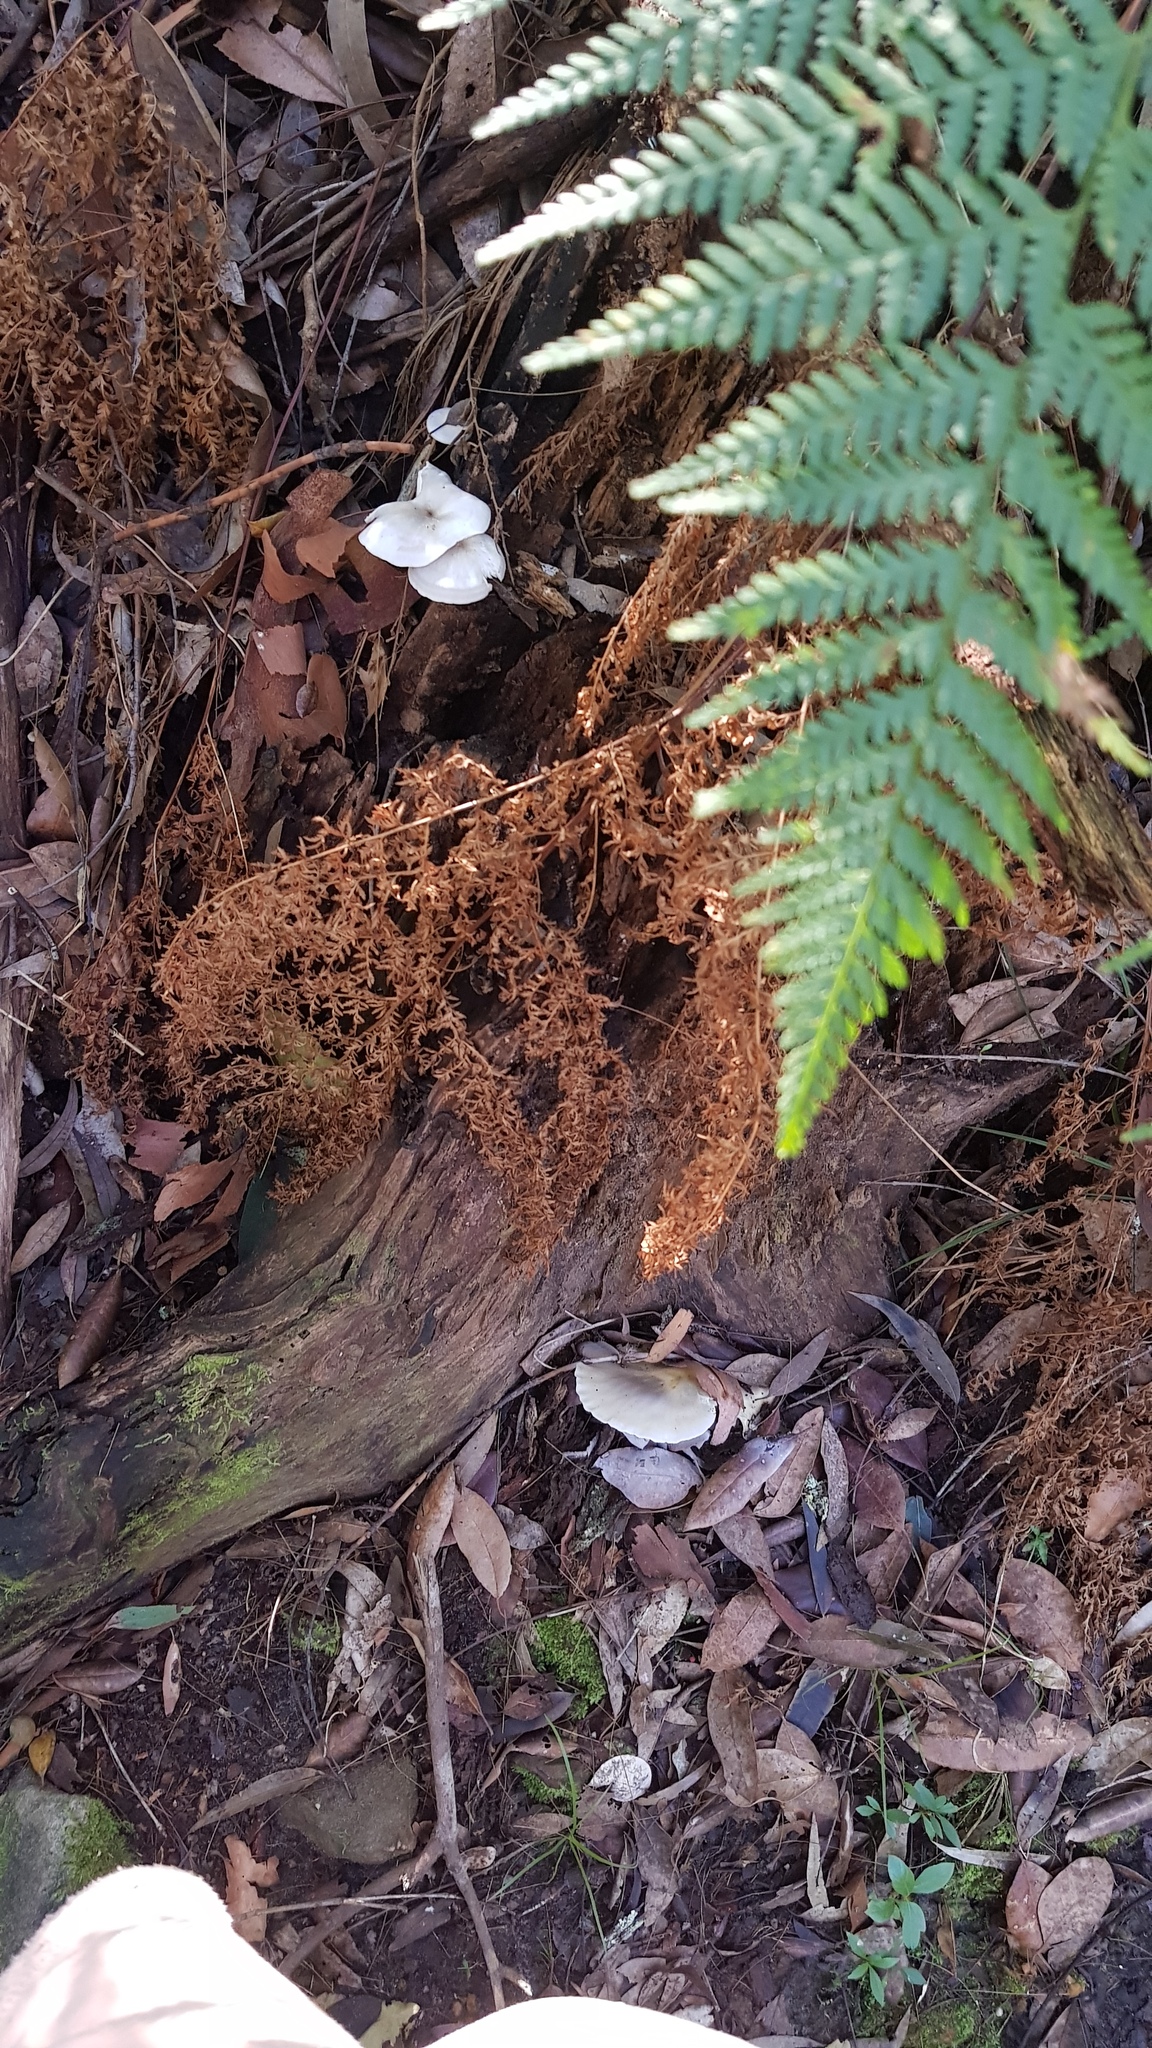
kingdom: Fungi
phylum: Basidiomycota
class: Agaricomycetes
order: Agaricales
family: Omphalotaceae
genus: Omphalotus
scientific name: Omphalotus nidiformis
